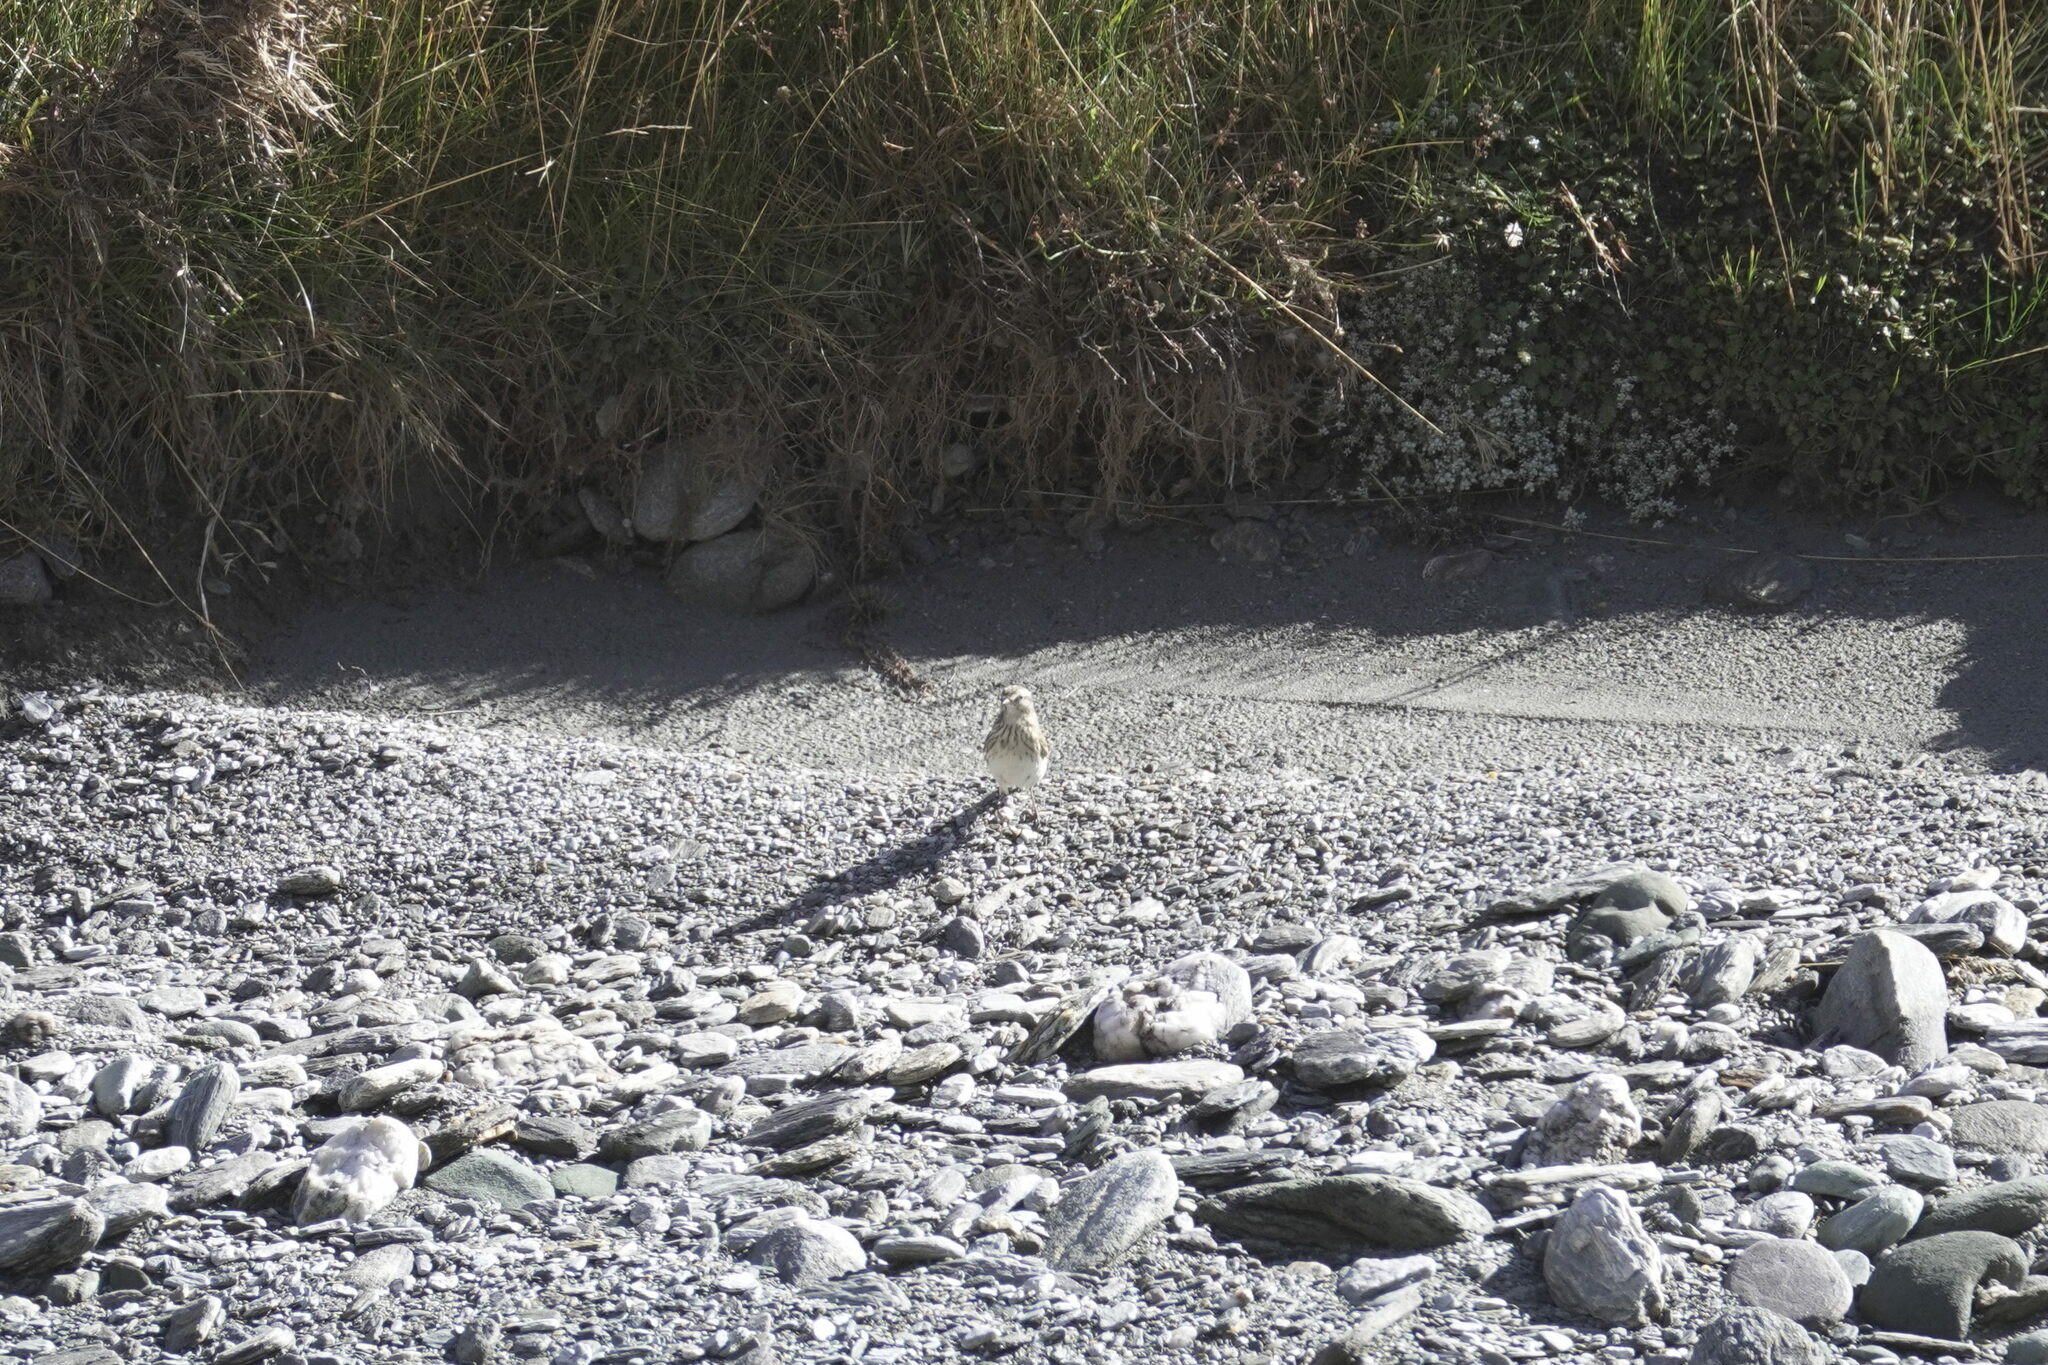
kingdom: Animalia
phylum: Chordata
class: Aves
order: Passeriformes
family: Motacillidae
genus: Anthus
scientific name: Anthus novaeseelandiae
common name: New zealand pipit
